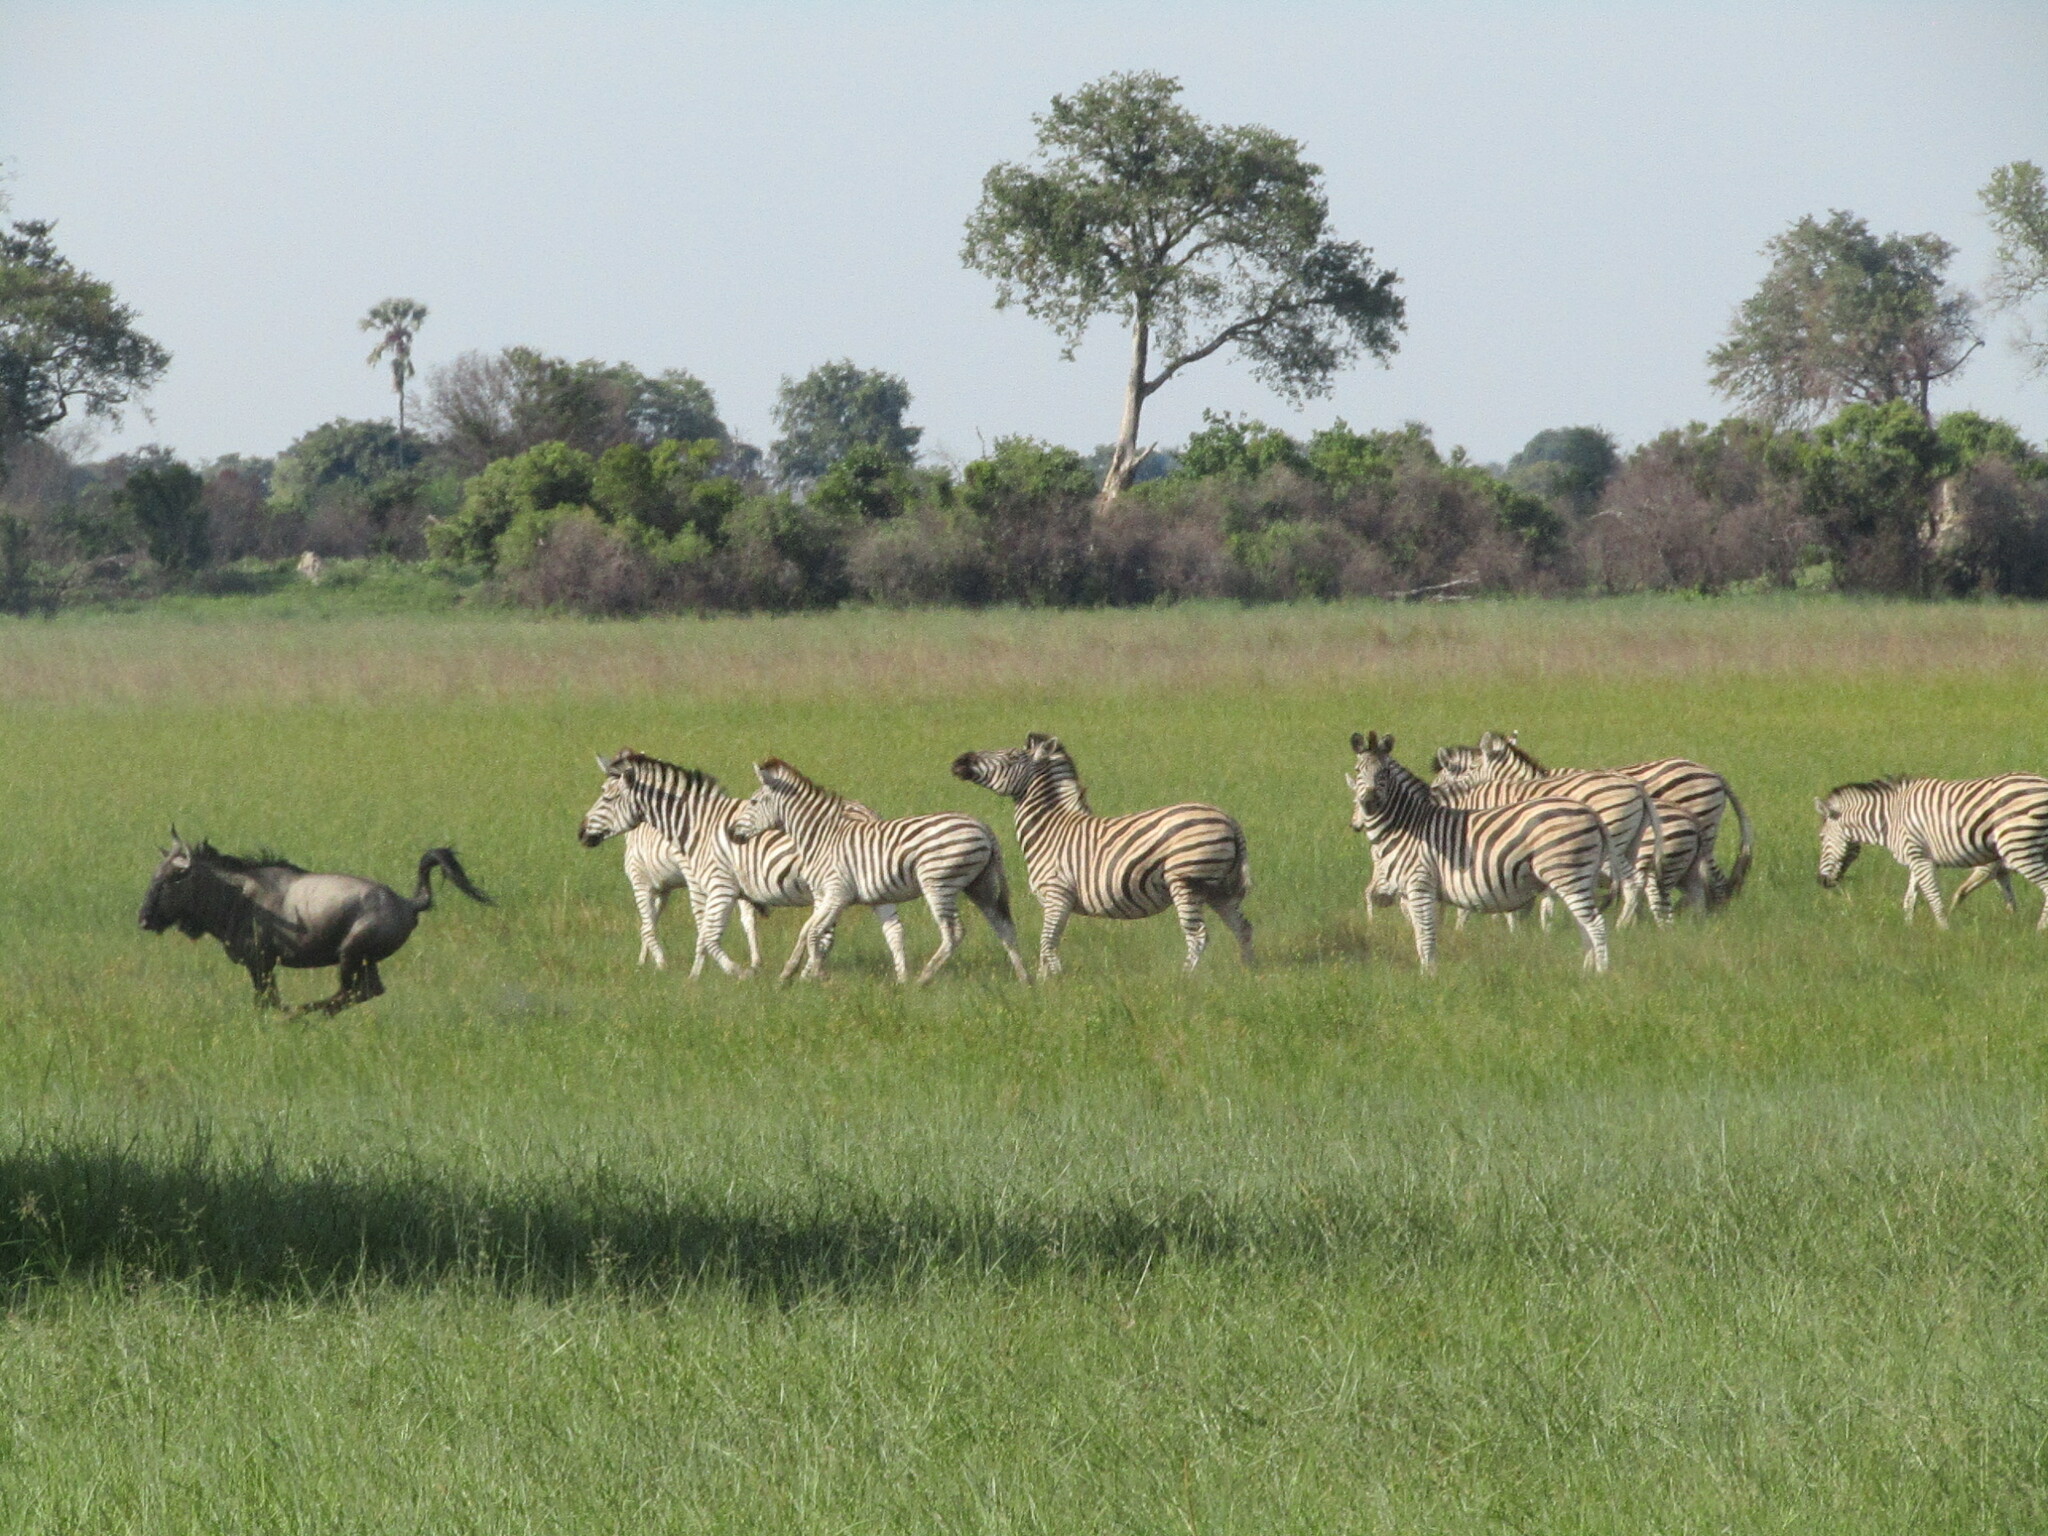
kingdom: Animalia
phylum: Chordata
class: Mammalia
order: Perissodactyla
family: Equidae
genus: Equus
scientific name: Equus quagga
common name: Plains zebra
